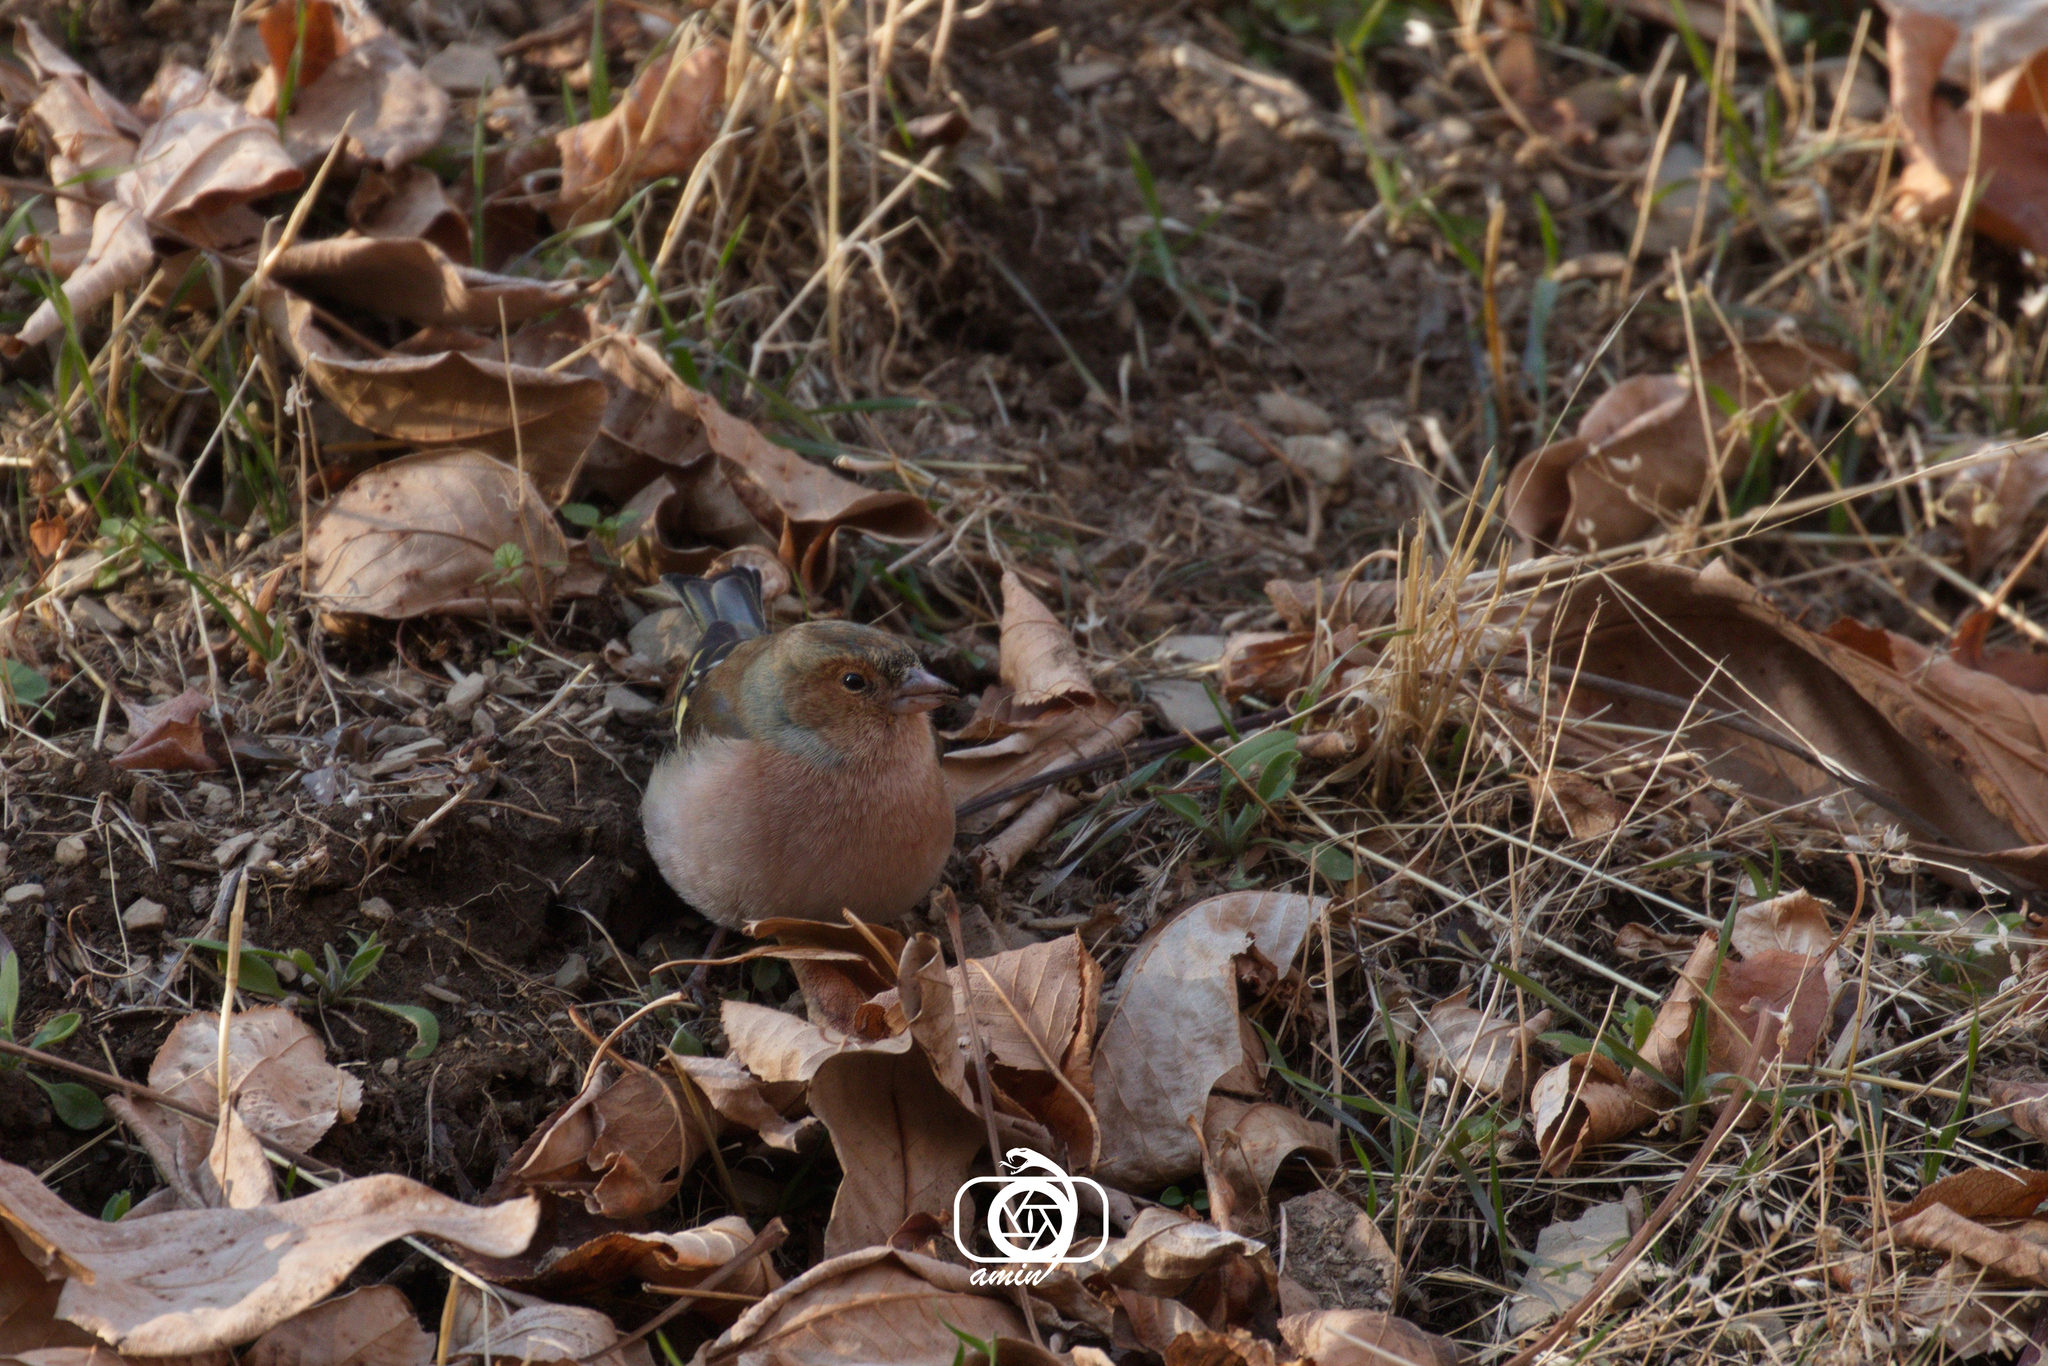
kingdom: Animalia
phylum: Chordata
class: Aves
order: Passeriformes
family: Fringillidae
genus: Fringilla
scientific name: Fringilla coelebs
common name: Common chaffinch
